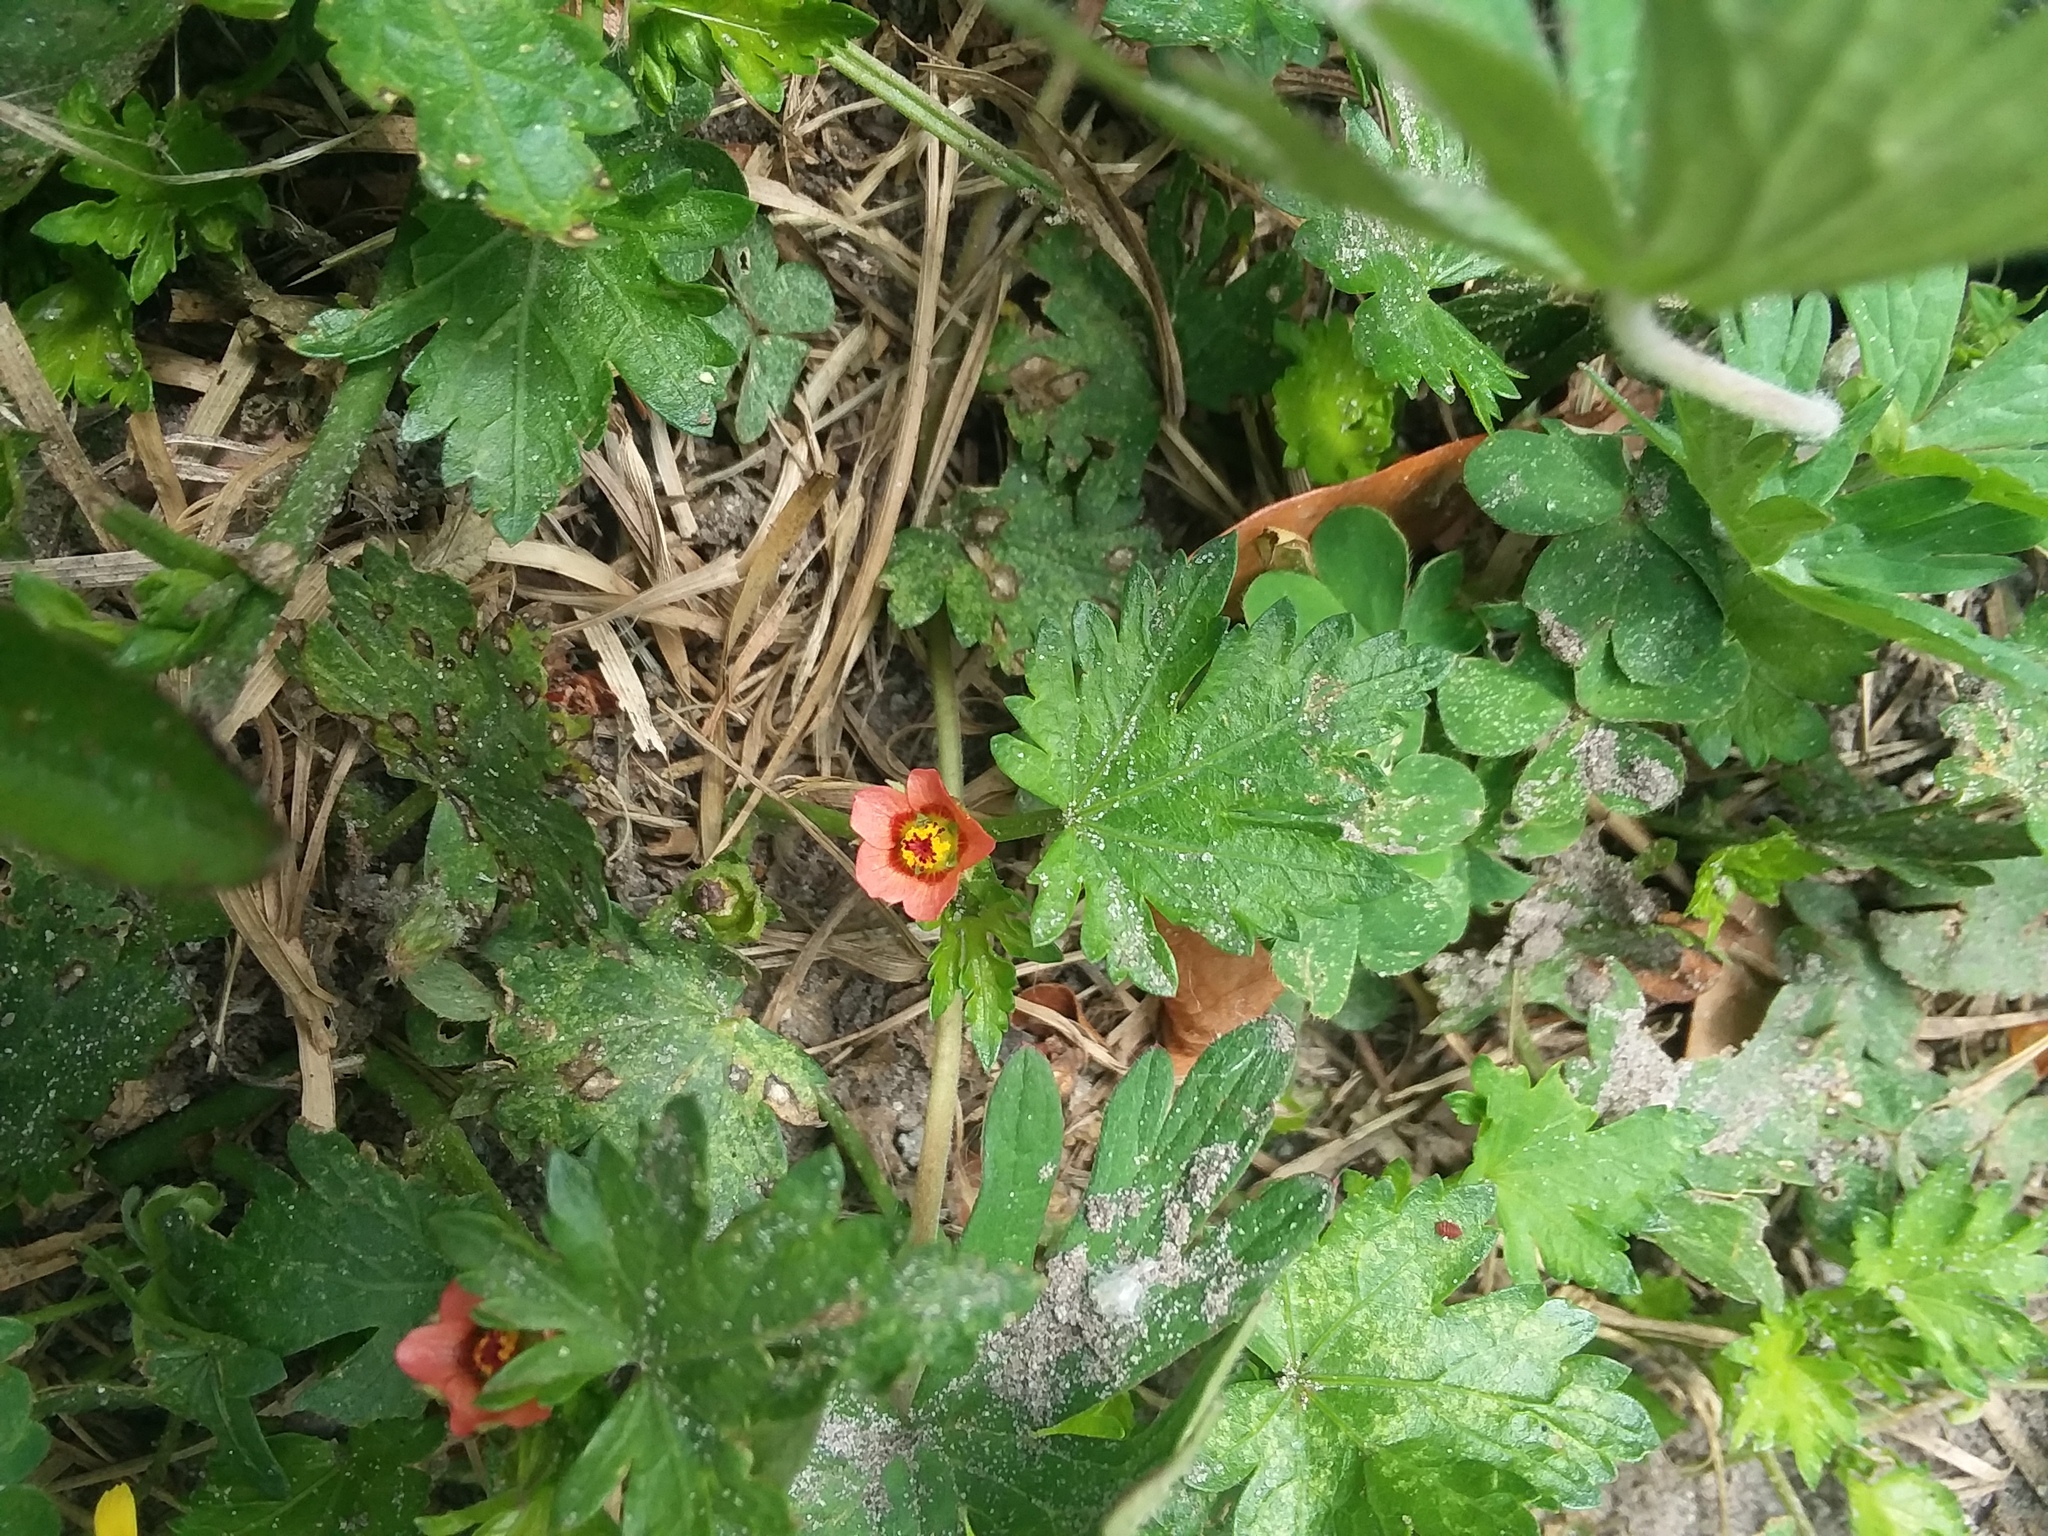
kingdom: Plantae
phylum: Tracheophyta
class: Magnoliopsida
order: Malvales
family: Malvaceae
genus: Modiola
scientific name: Modiola caroliniana
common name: Carolina bristlemallow
